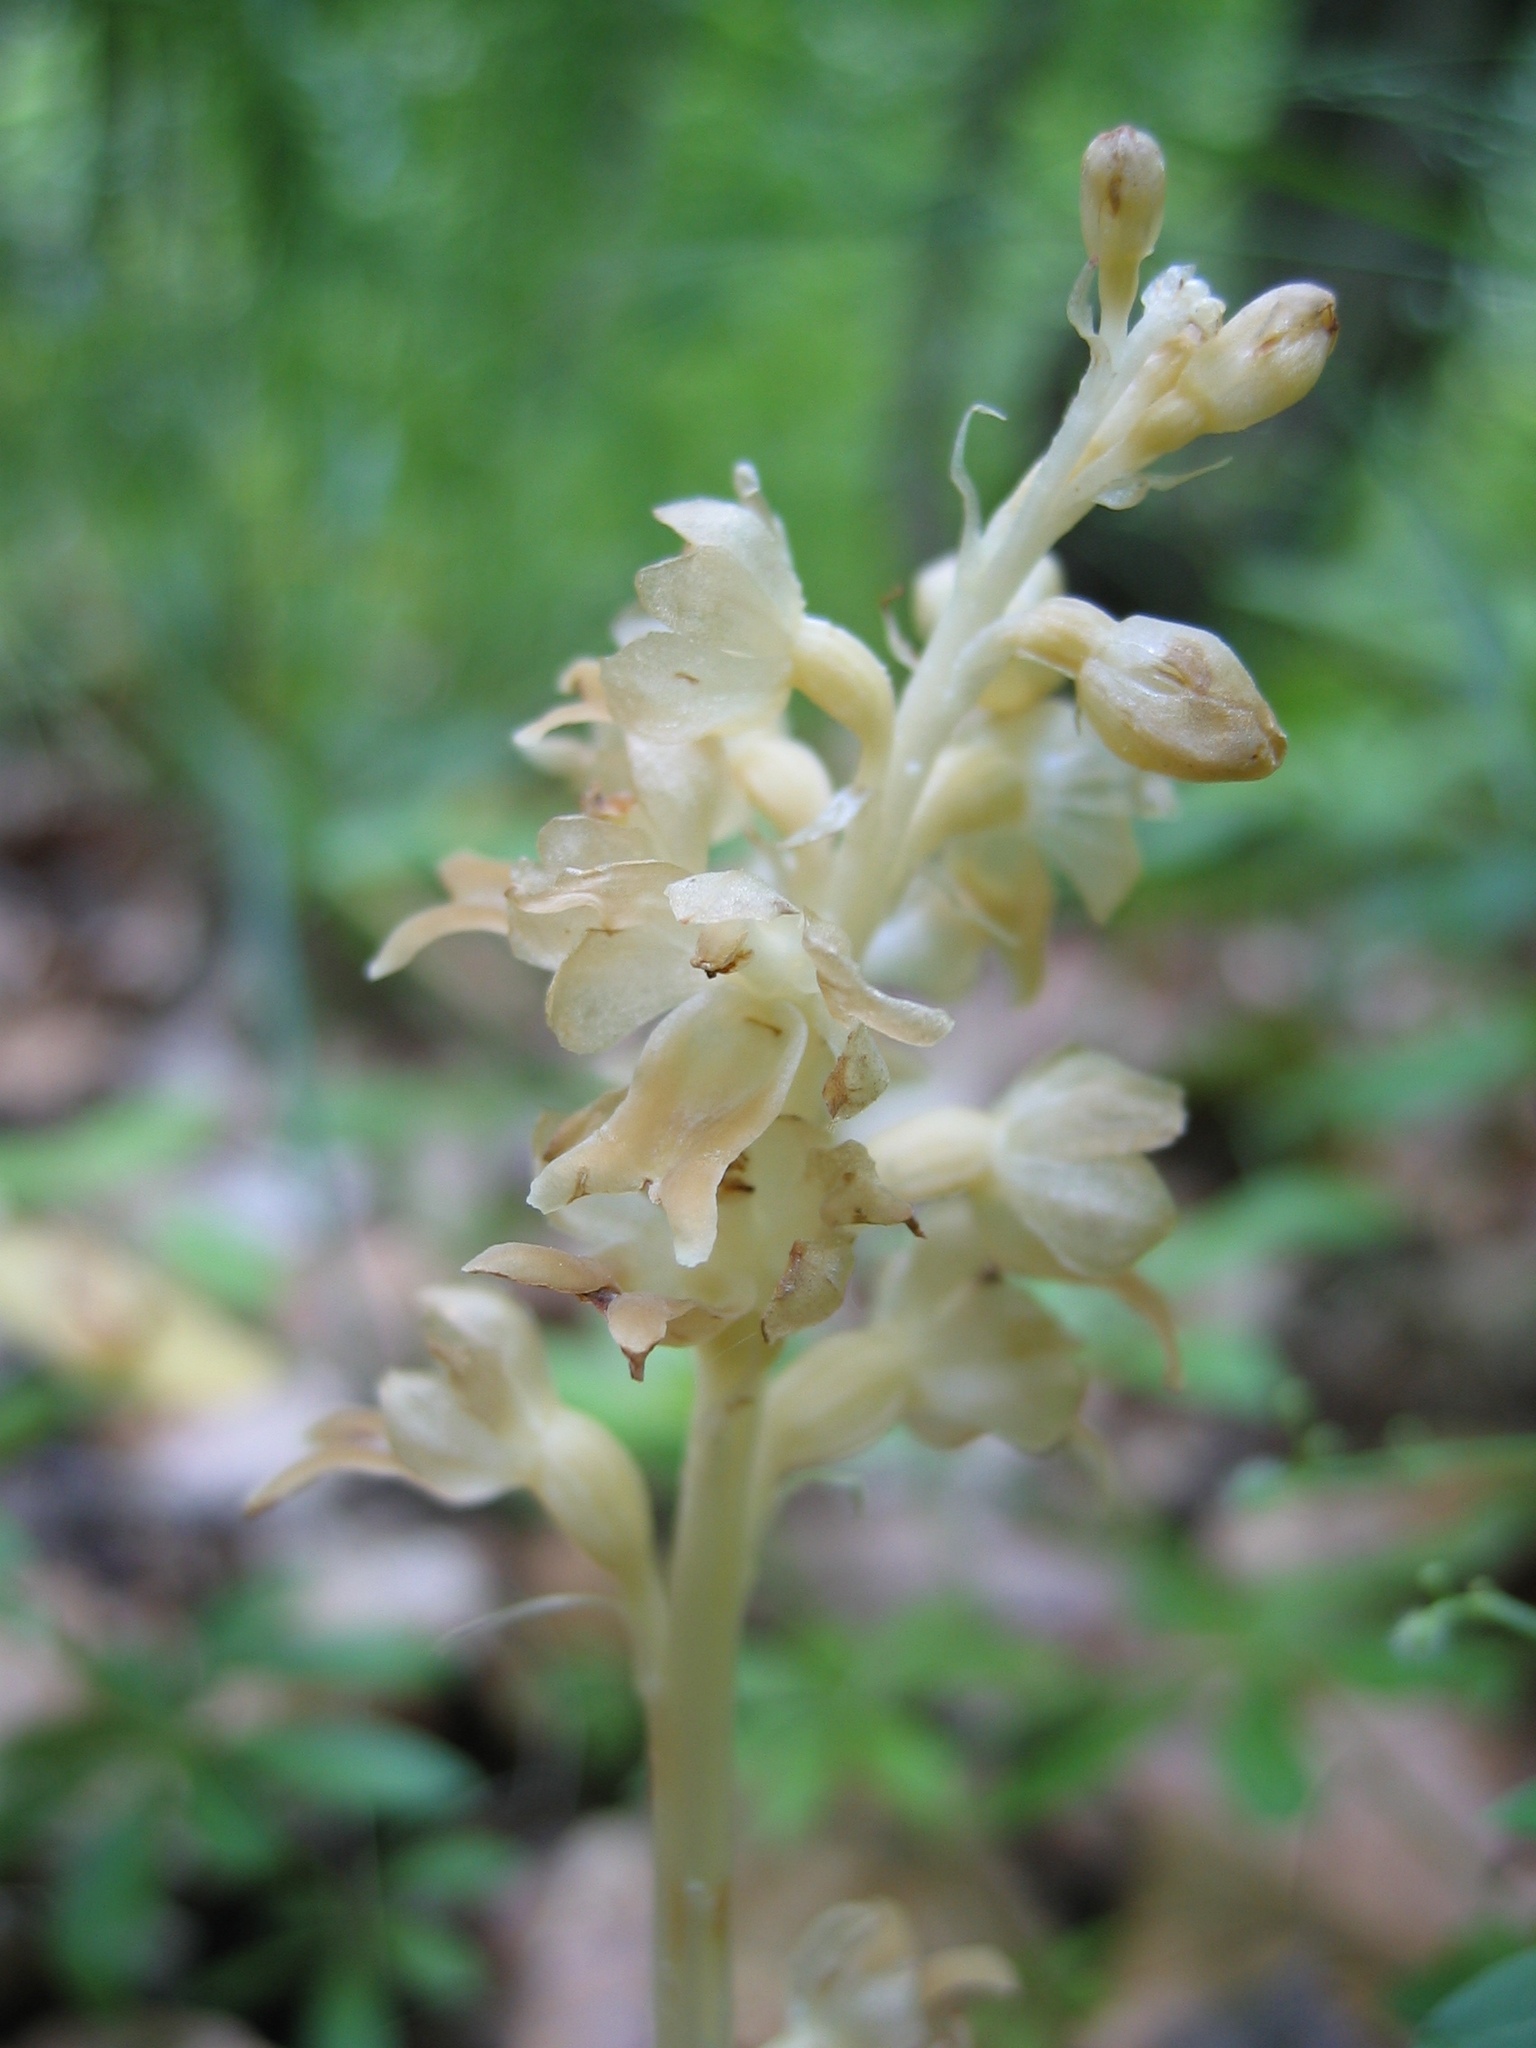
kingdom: Plantae
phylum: Tracheophyta
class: Liliopsida
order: Asparagales
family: Orchidaceae
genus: Neottia
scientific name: Neottia nidus-avis
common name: Bird's-nest orchid
